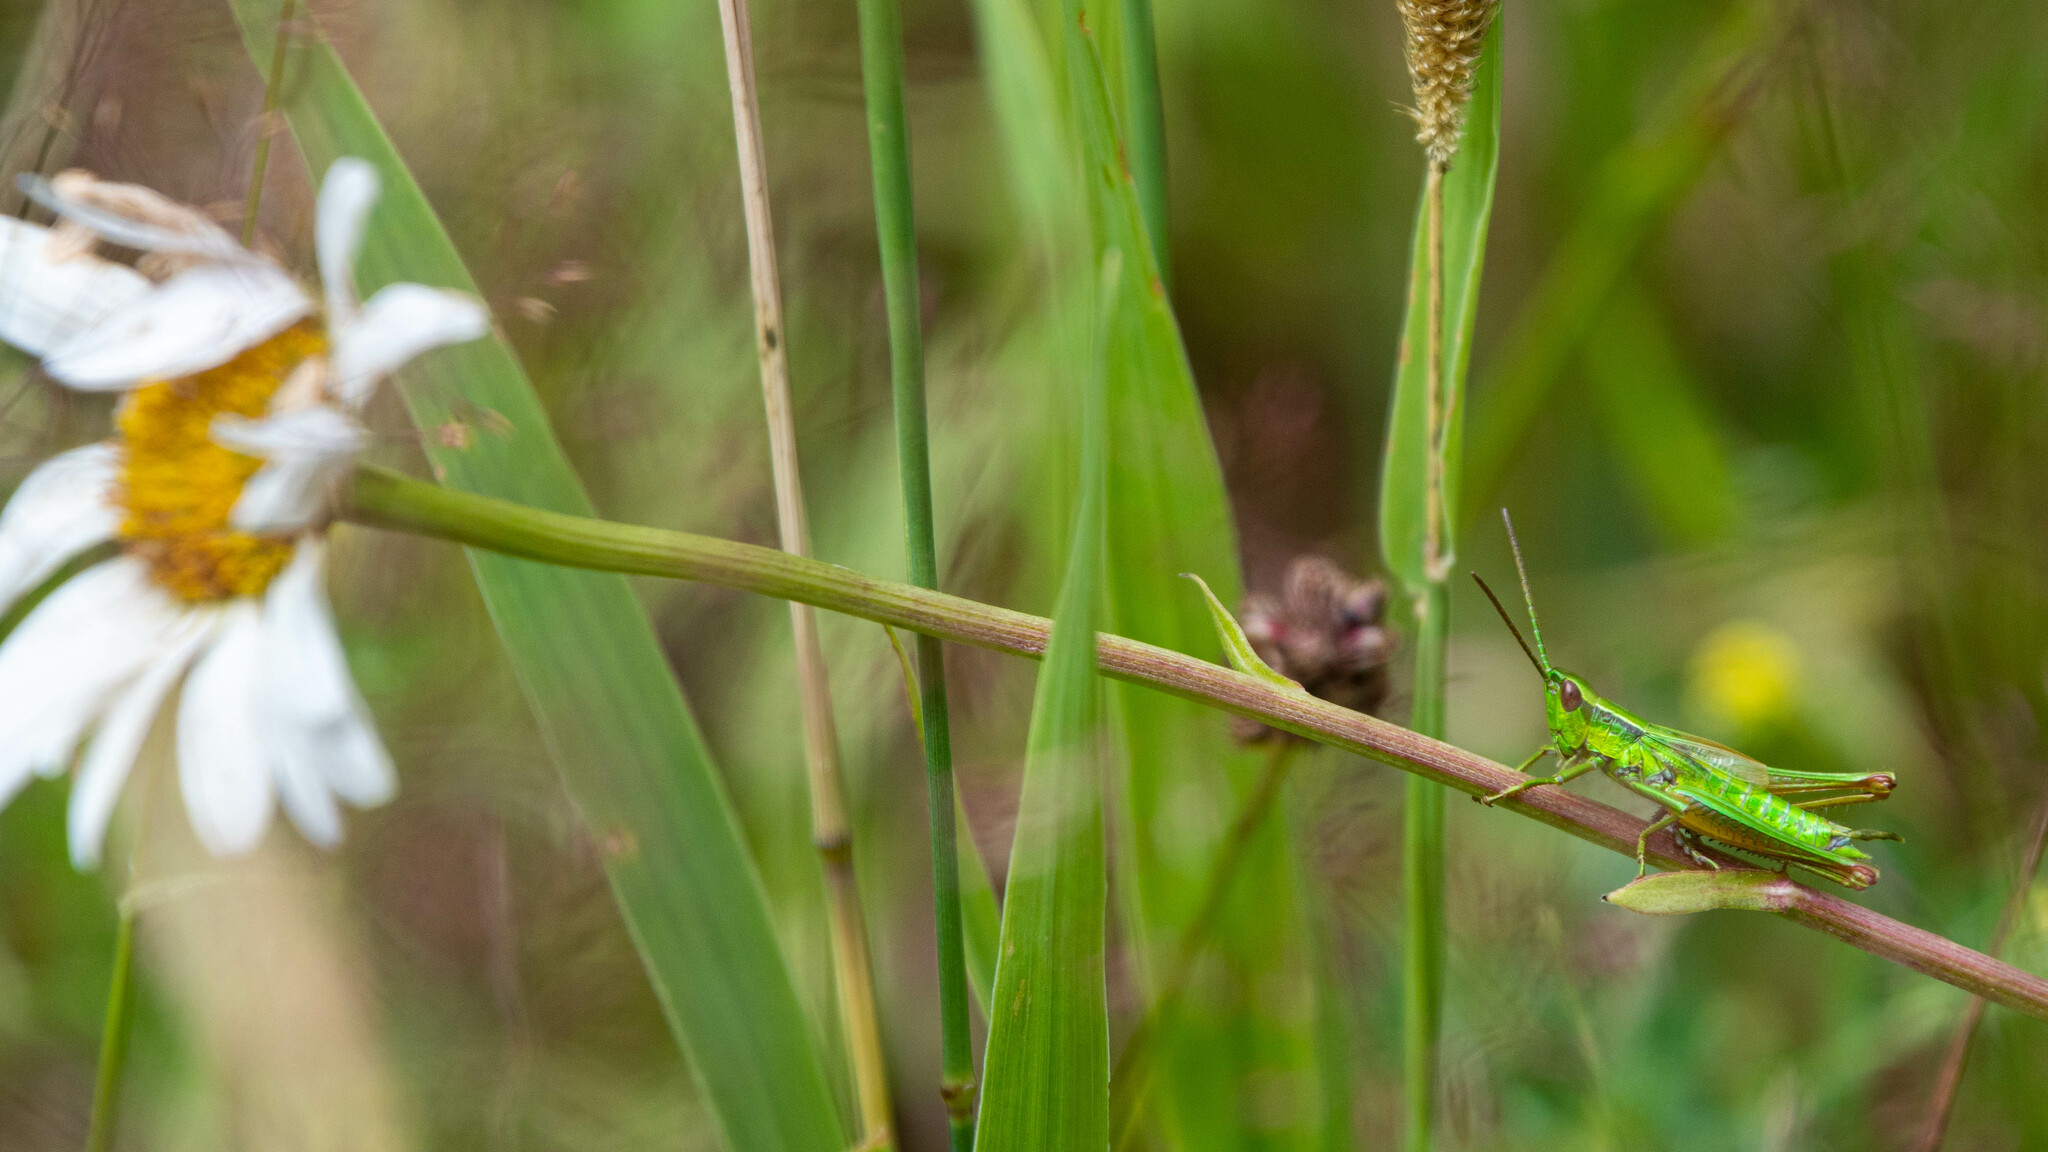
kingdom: Animalia
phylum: Arthropoda
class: Insecta
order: Orthoptera
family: Acrididae
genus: Euthystira
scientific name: Euthystira brachyptera
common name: Small gold grasshopper
